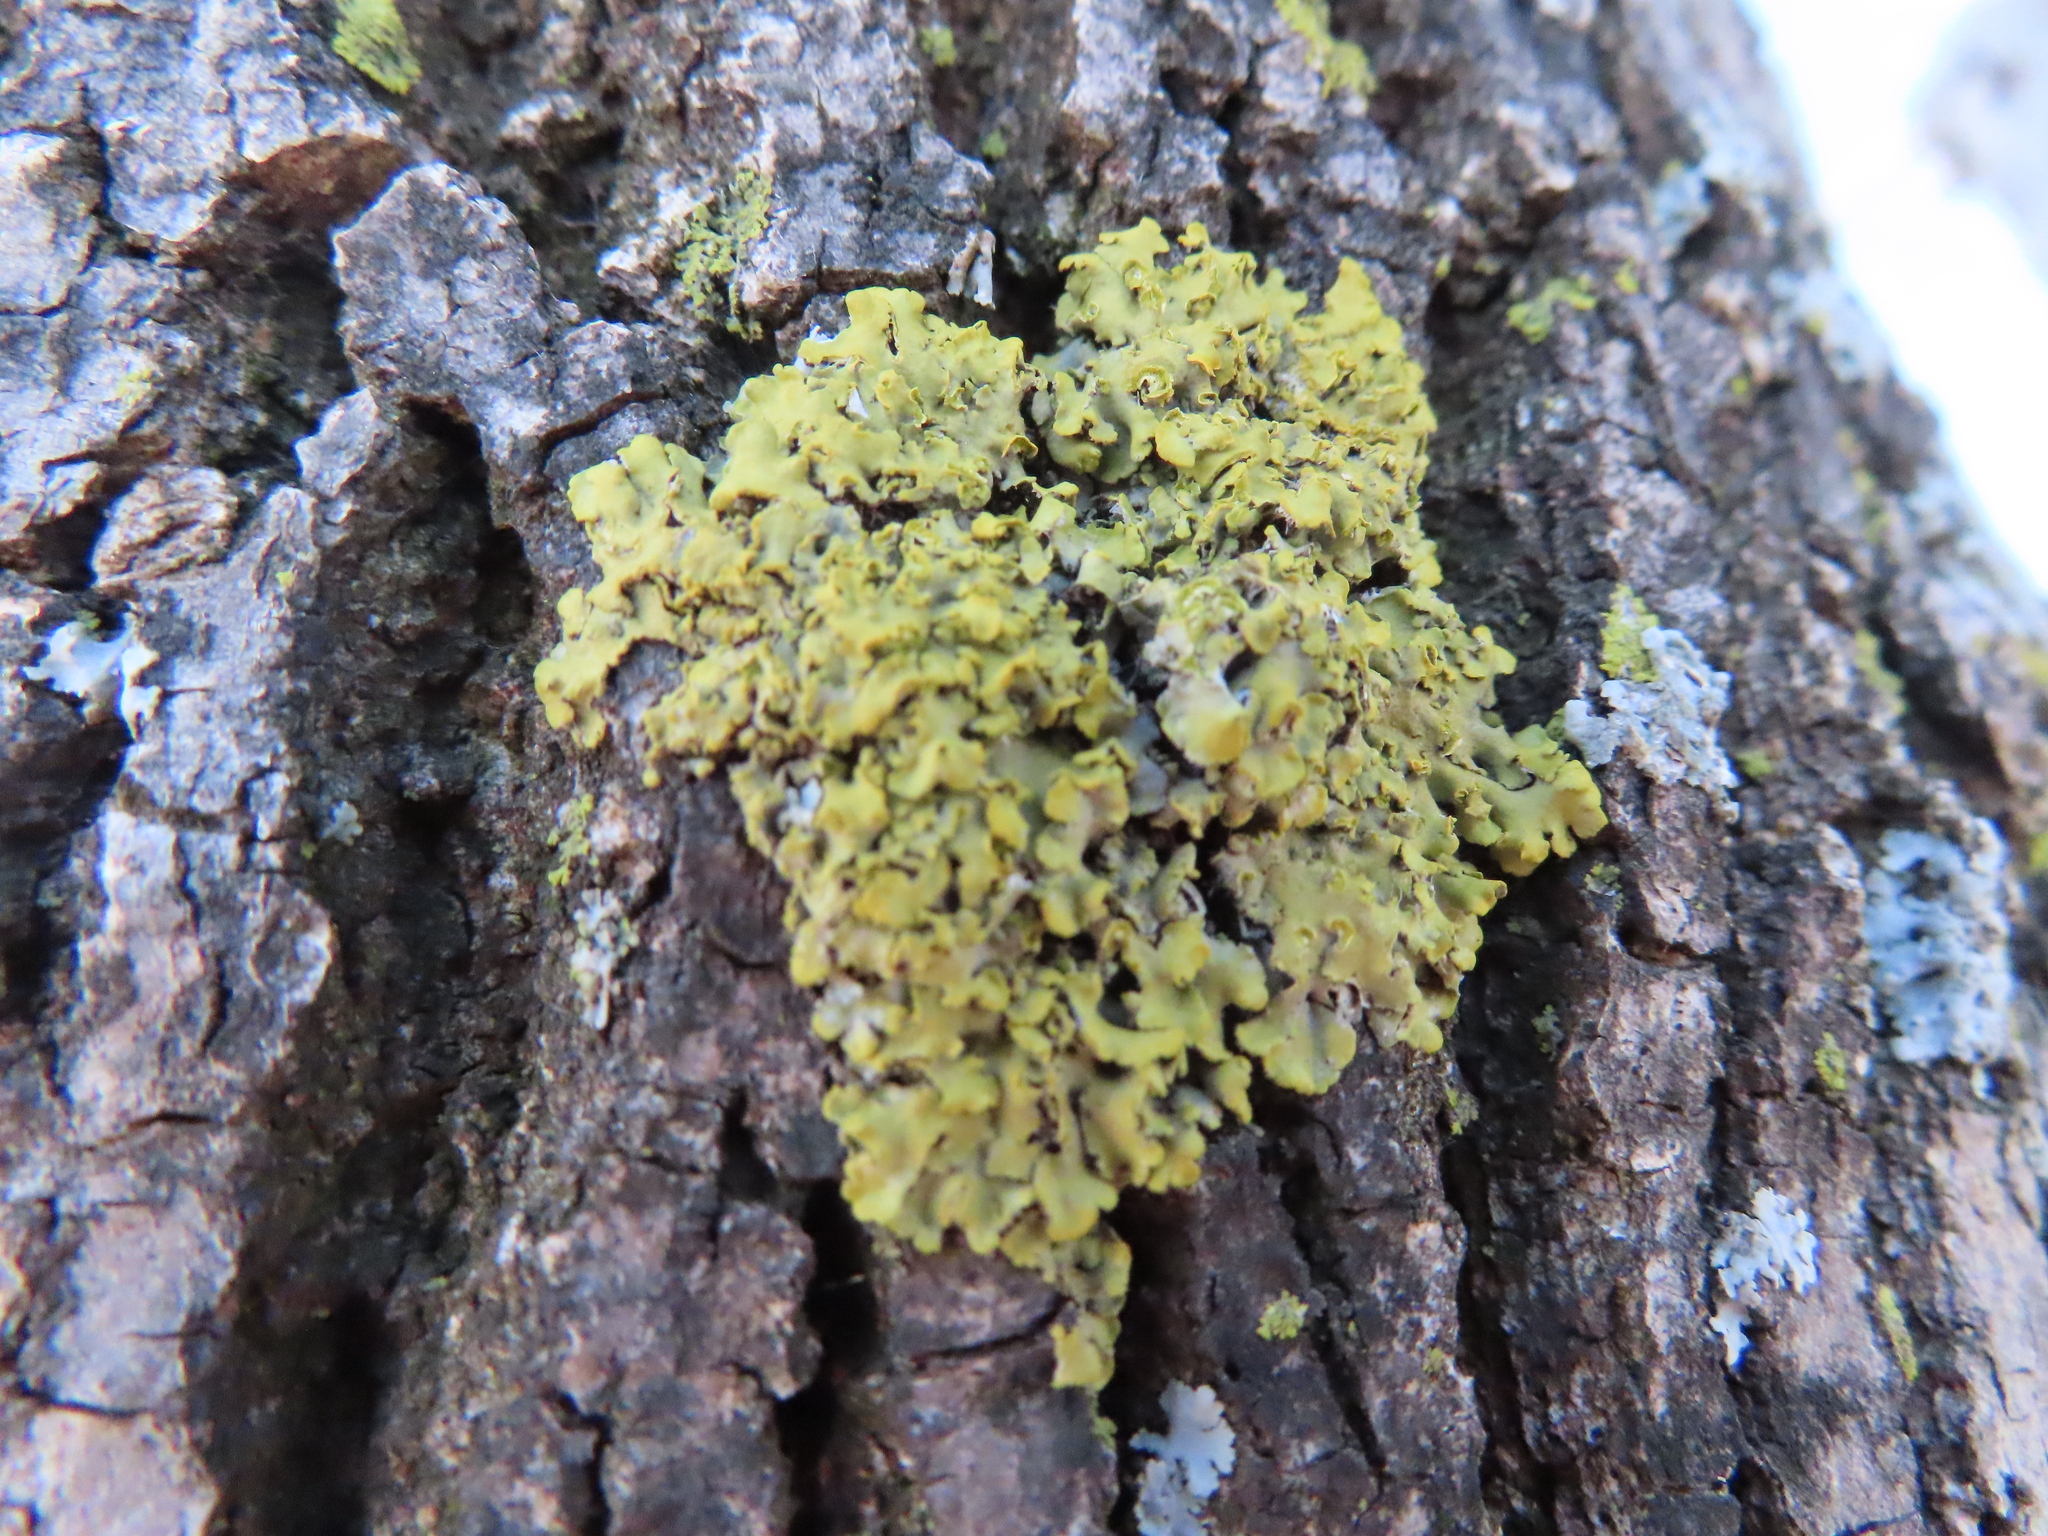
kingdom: Fungi
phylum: Ascomycota
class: Lecanoromycetes
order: Teloschistales
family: Teloschistaceae
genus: Oxneria
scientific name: Oxneria fallax
